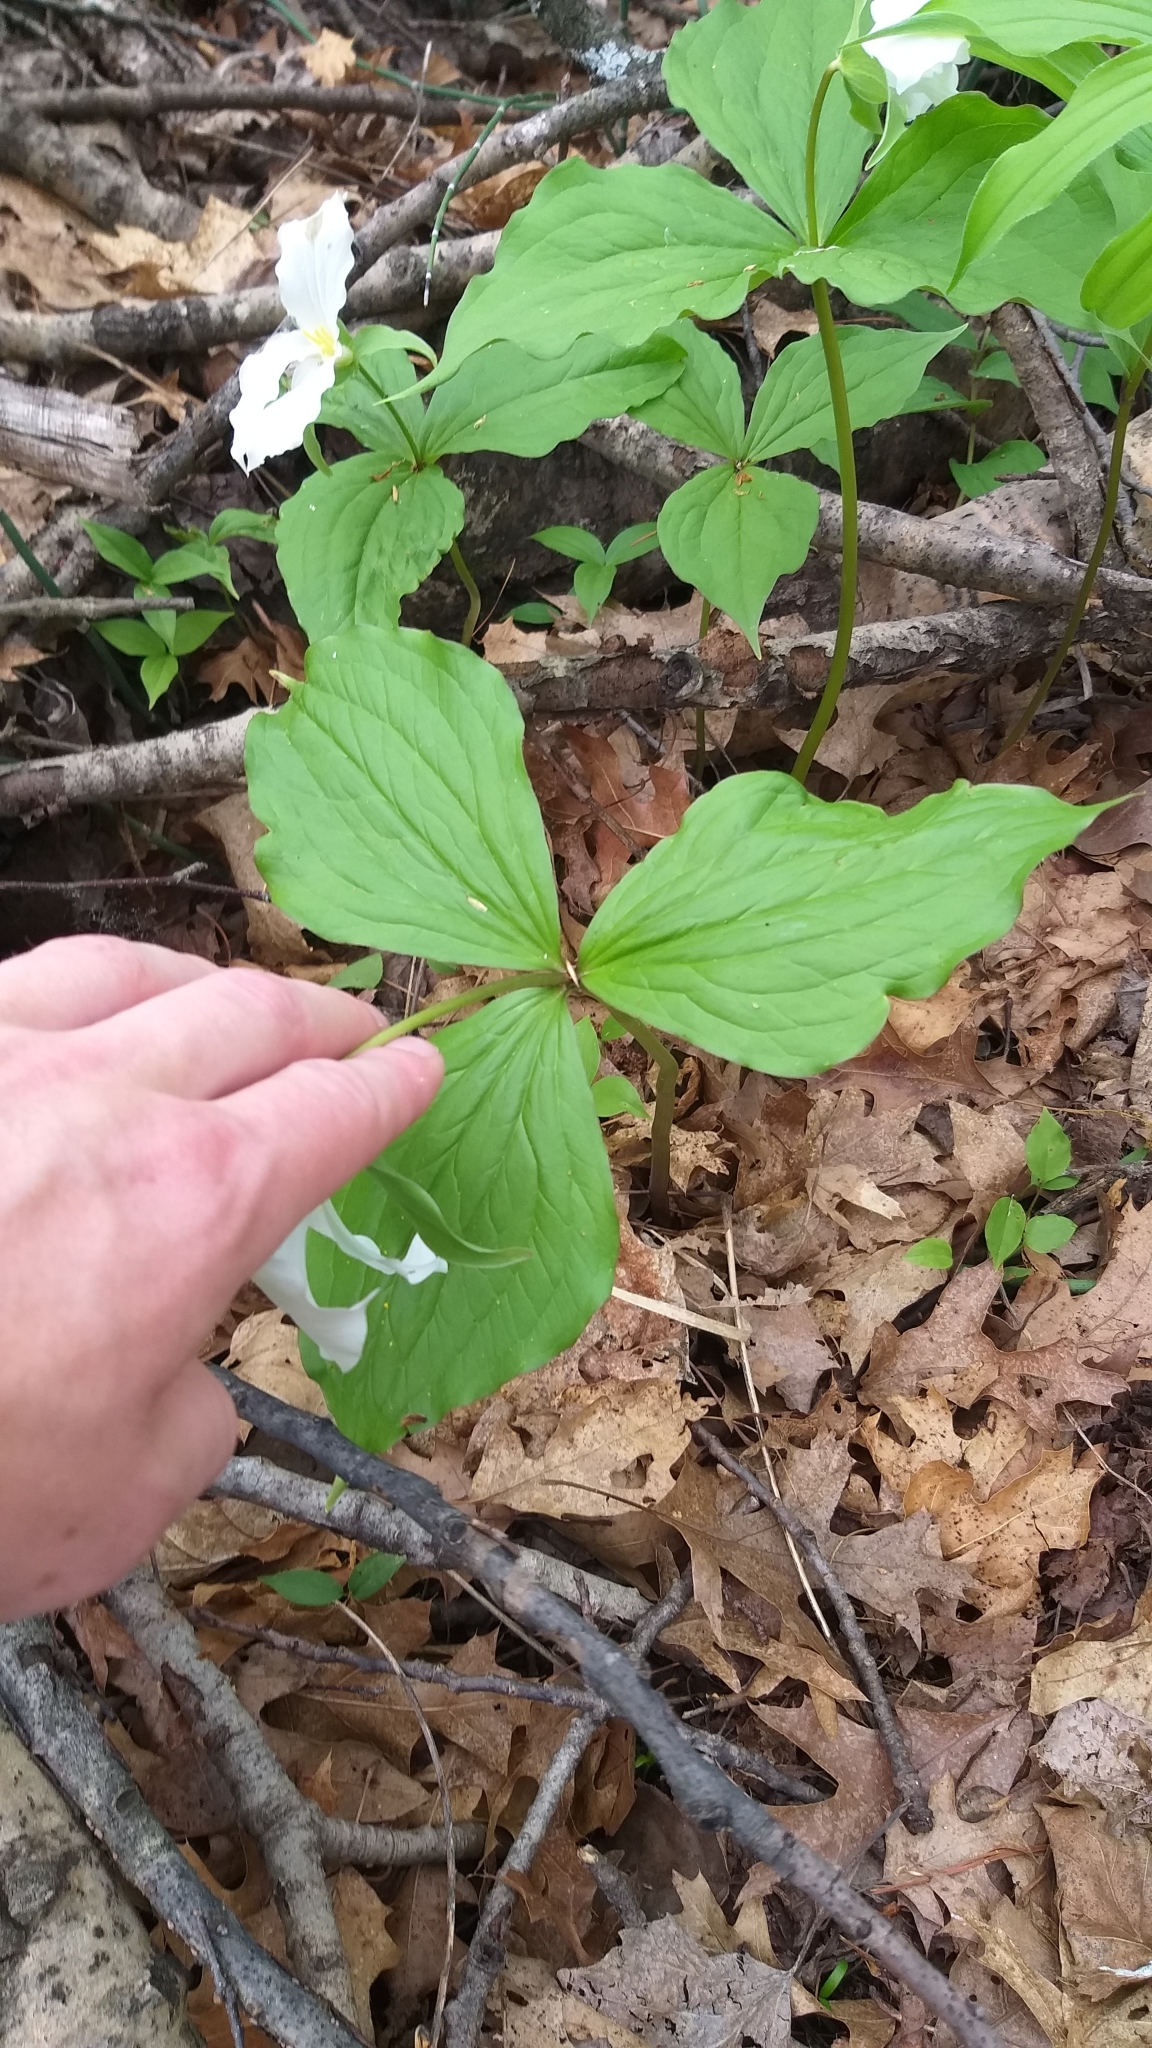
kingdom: Plantae
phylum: Tracheophyta
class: Liliopsida
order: Liliales
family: Melanthiaceae
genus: Trillium
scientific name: Trillium grandiflorum
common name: Great white trillium
